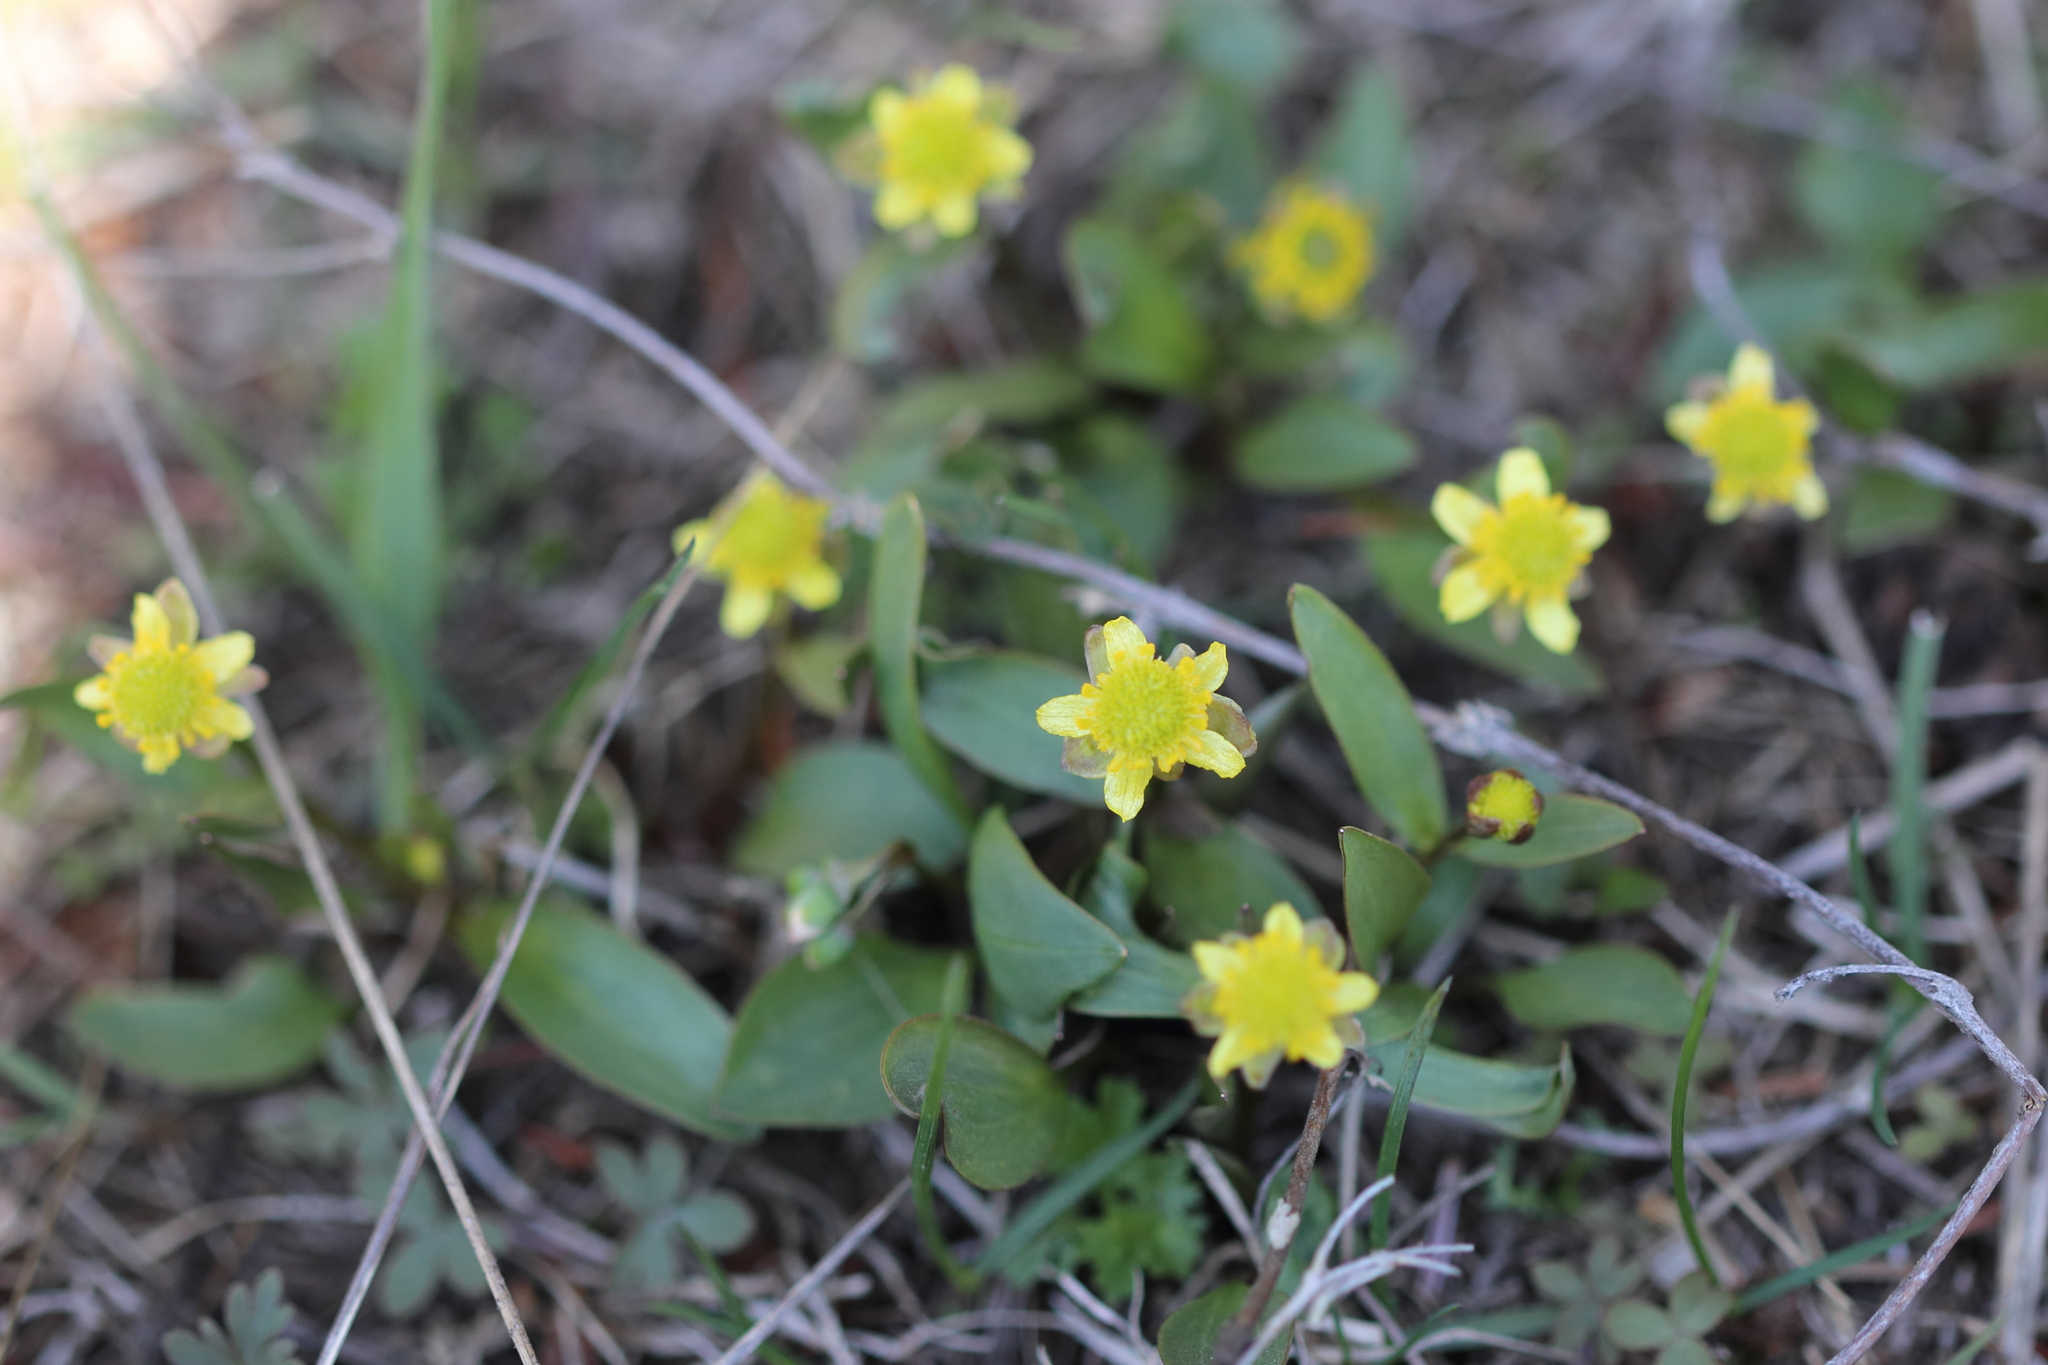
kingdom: Plantae
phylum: Tracheophyta
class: Magnoliopsida
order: Ranunculales
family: Ranunculaceae
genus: Ranunculus
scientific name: Ranunculus glaberrimus
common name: Sagebrush buttercup
